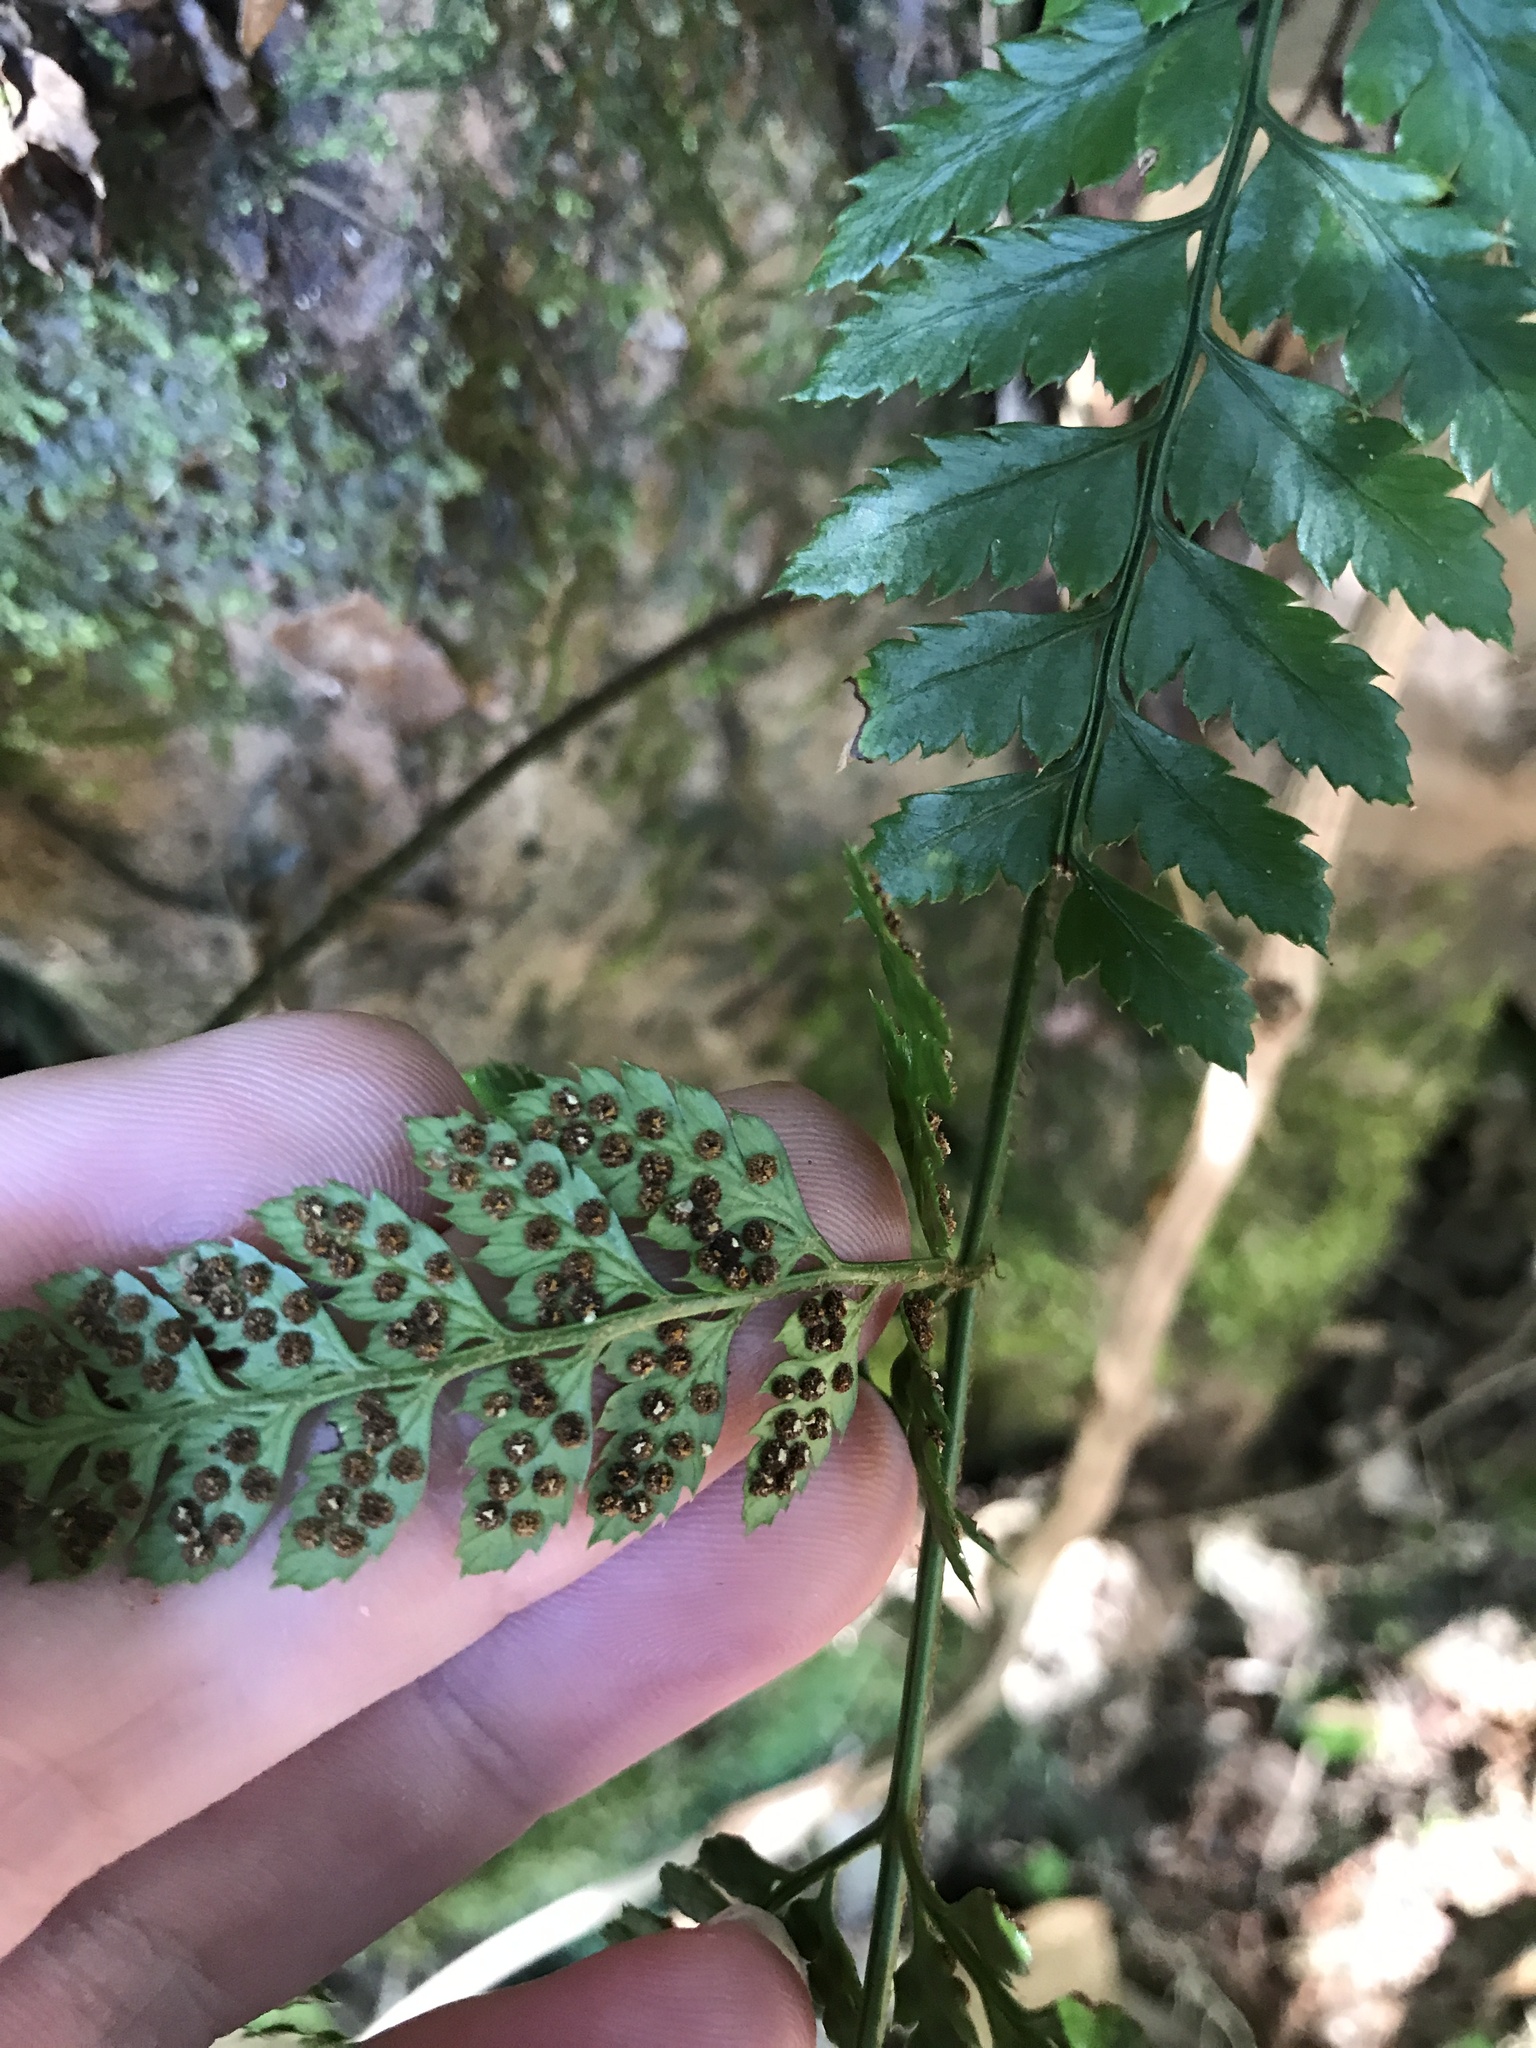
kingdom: Plantae
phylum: Tracheophyta
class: Polypodiopsida
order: Polypodiales
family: Dryopteridaceae
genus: Arachniodes
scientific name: Arachniodes cornu-cervi
